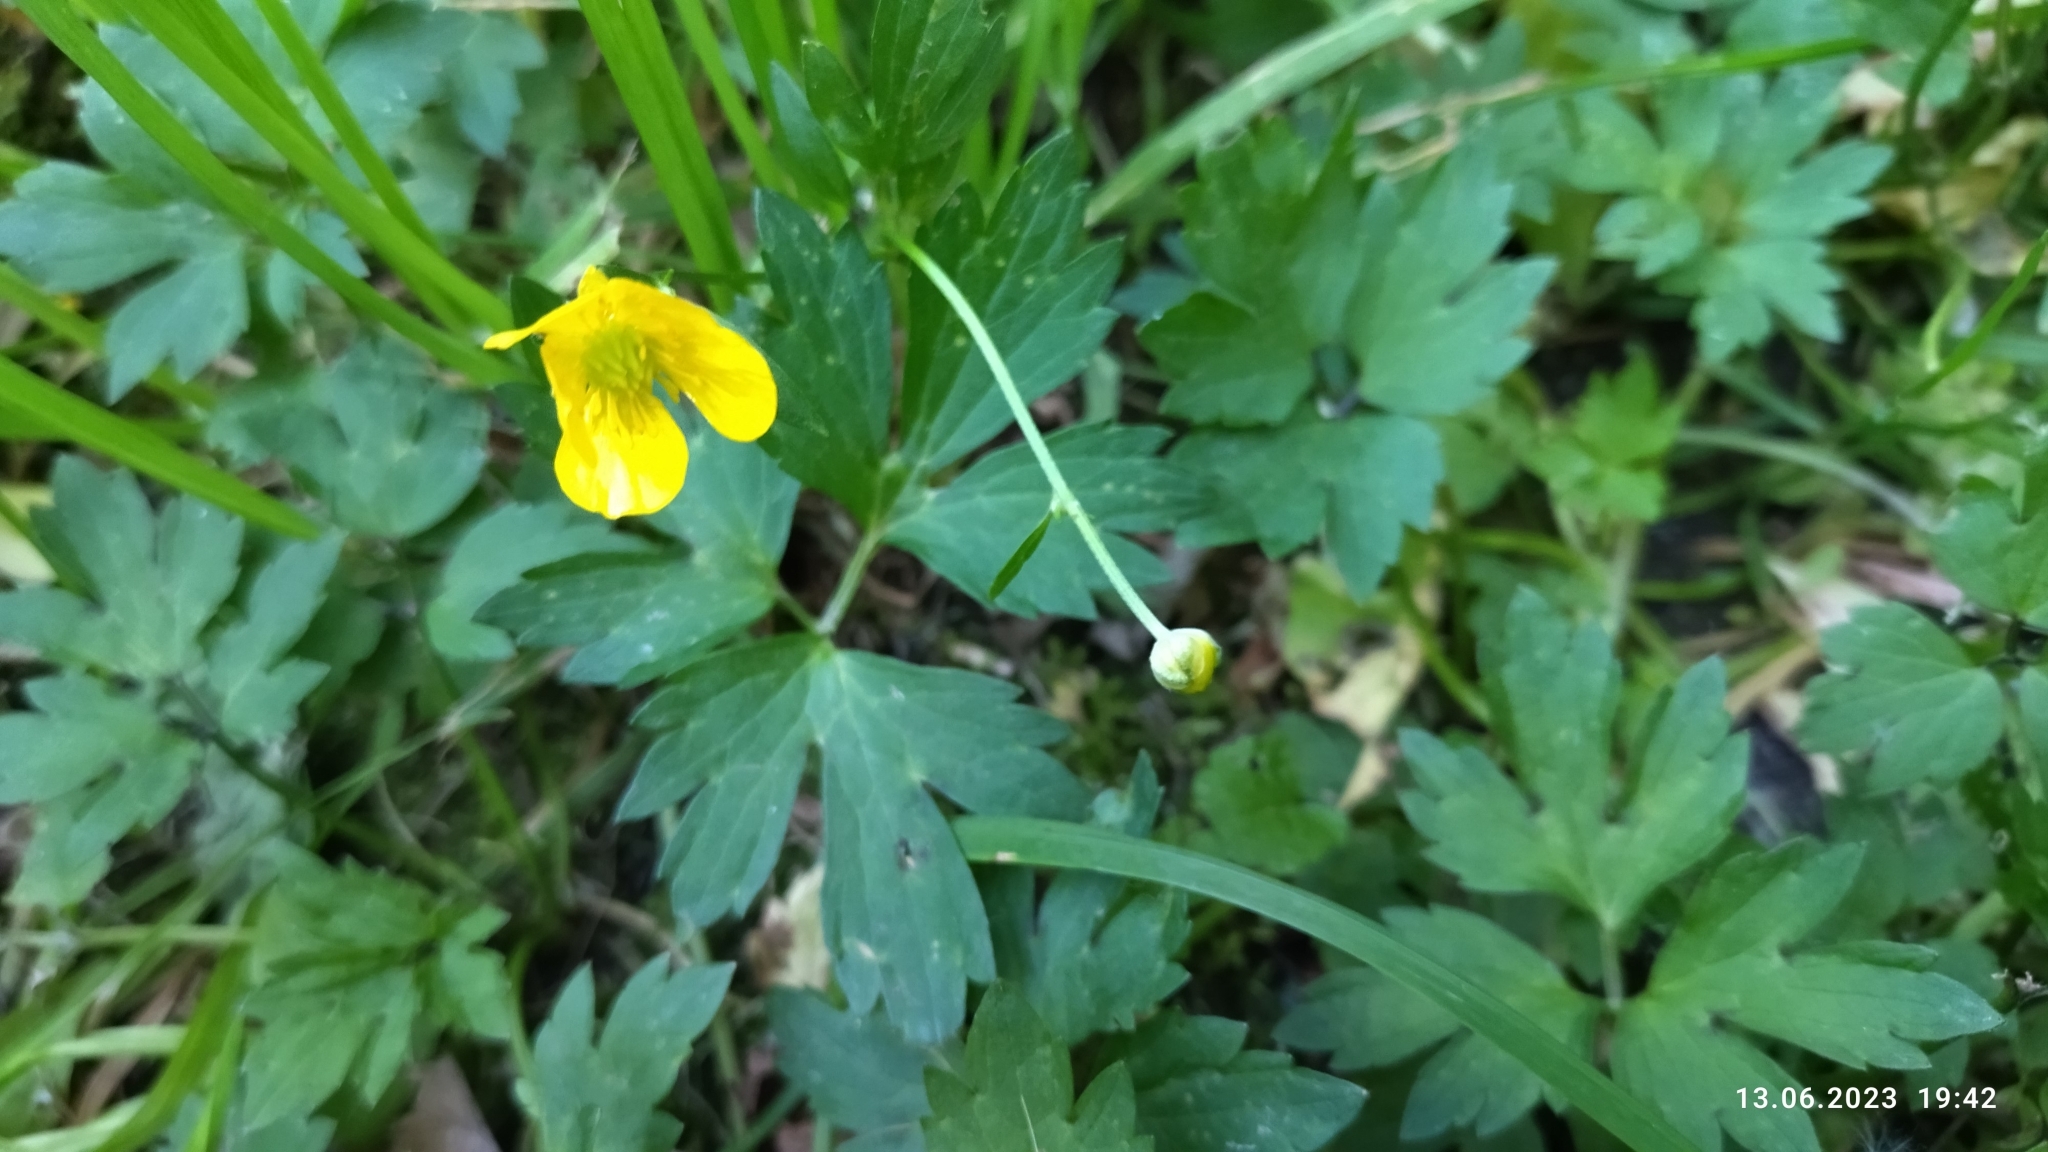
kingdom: Plantae
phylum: Tracheophyta
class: Magnoliopsida
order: Ranunculales
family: Ranunculaceae
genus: Ranunculus
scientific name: Ranunculus repens
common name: Creeping buttercup
